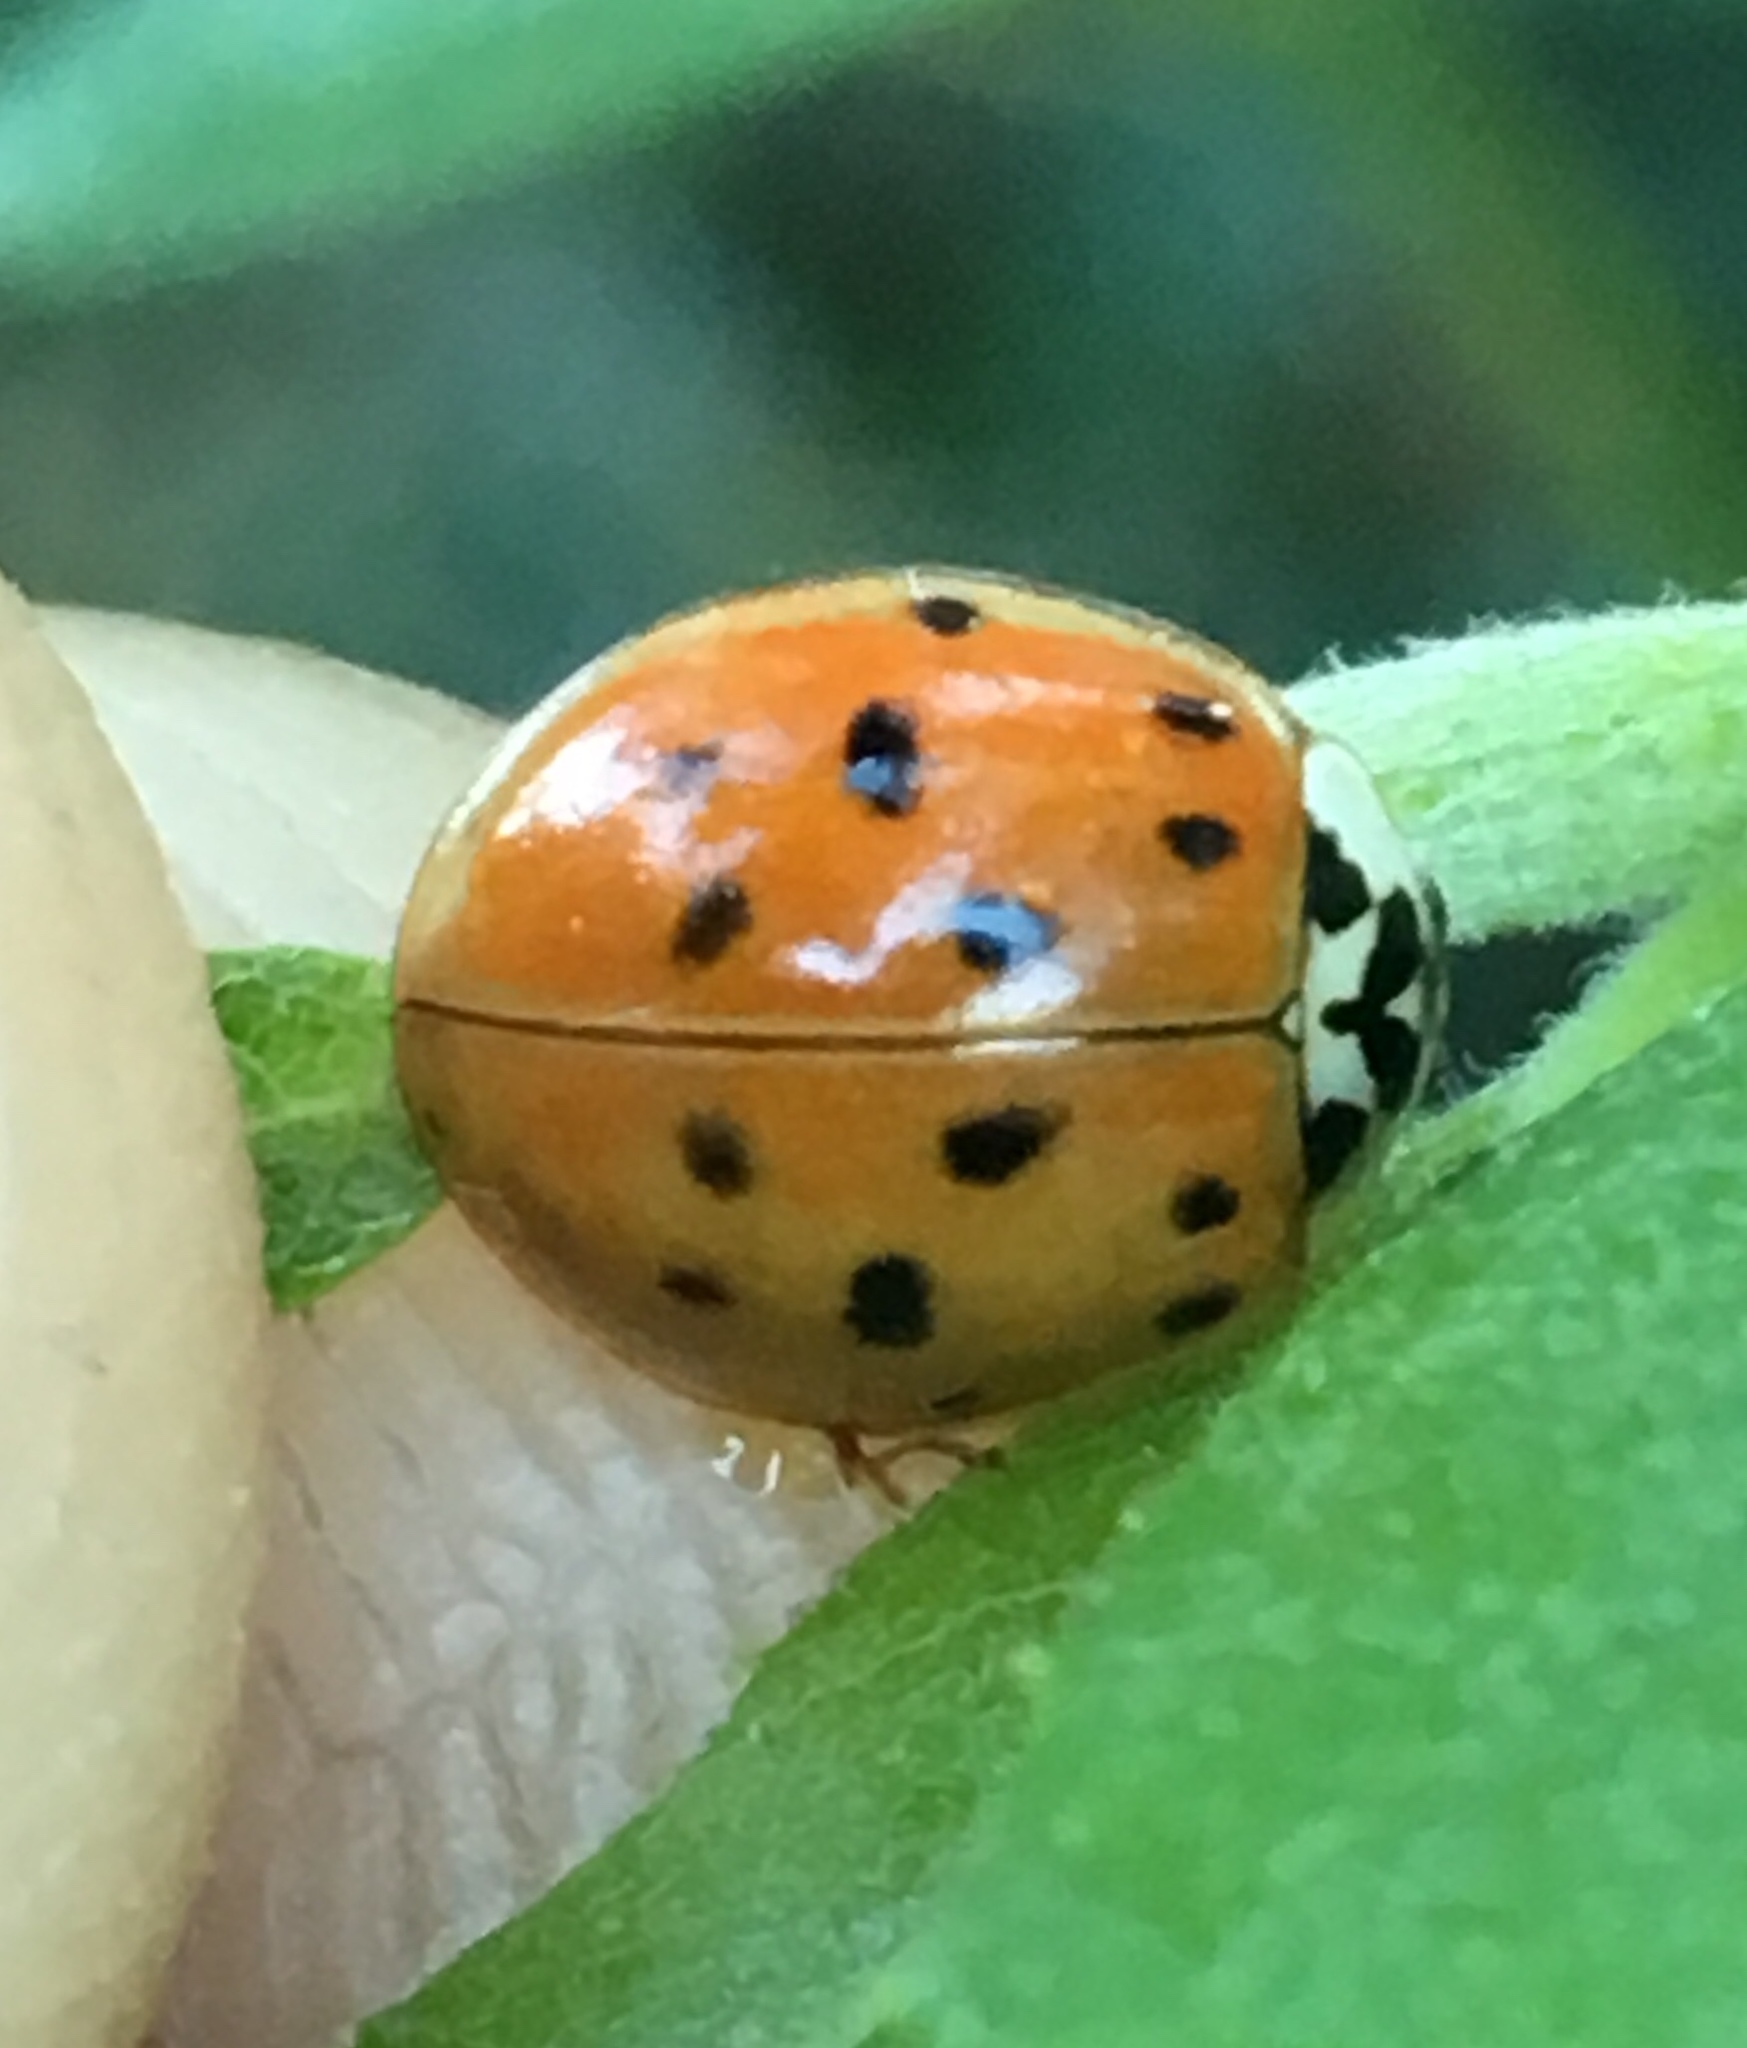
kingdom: Animalia
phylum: Arthropoda
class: Insecta
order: Coleoptera
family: Coccinellidae
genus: Harmonia
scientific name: Harmonia axyridis
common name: Harlequin ladybird
